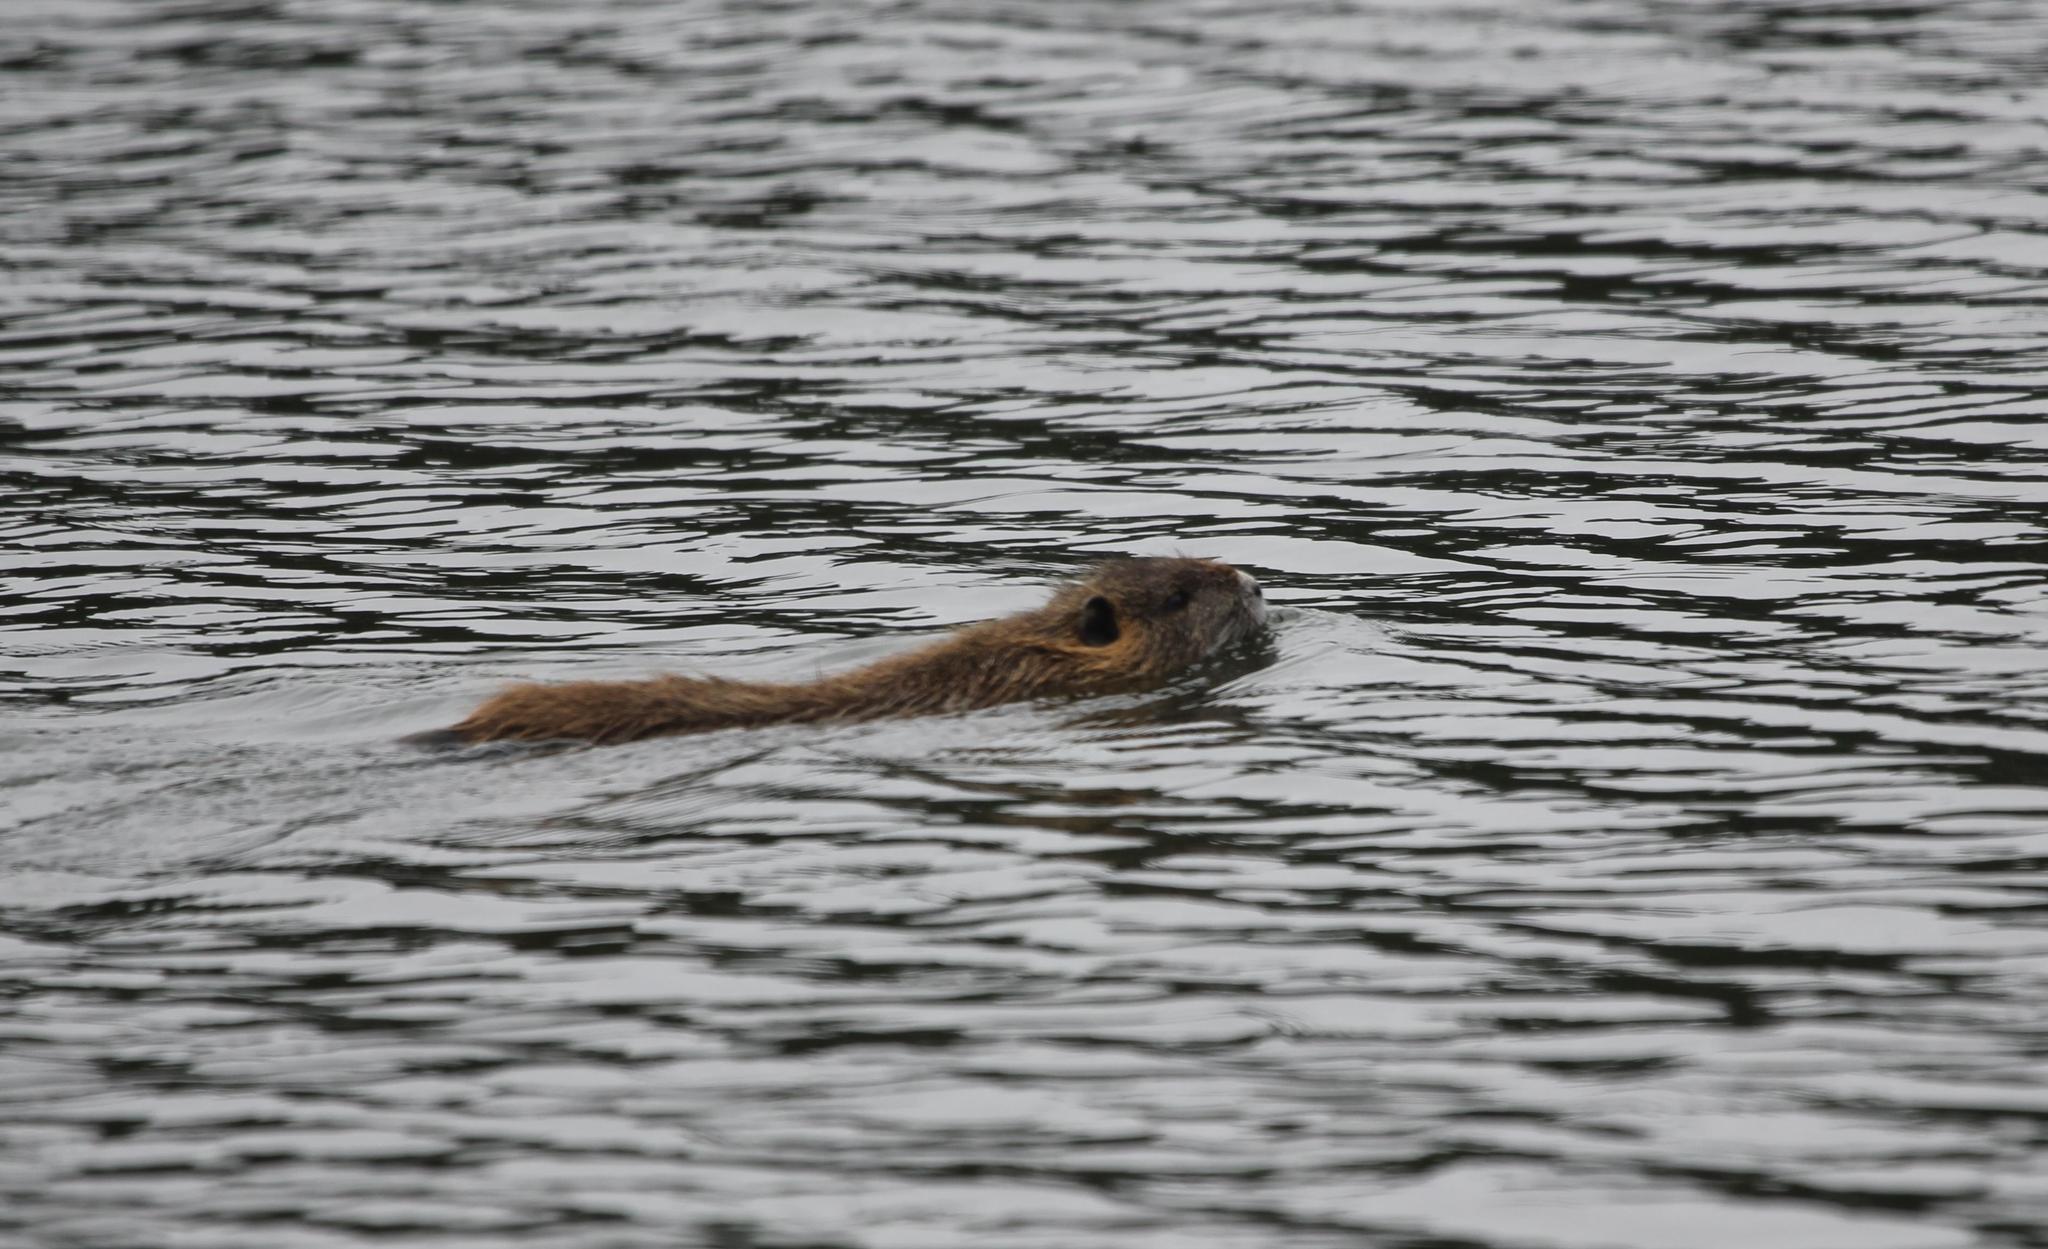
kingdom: Animalia
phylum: Chordata
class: Mammalia
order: Rodentia
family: Myocastoridae
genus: Myocastor
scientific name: Myocastor coypus
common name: Coypu
